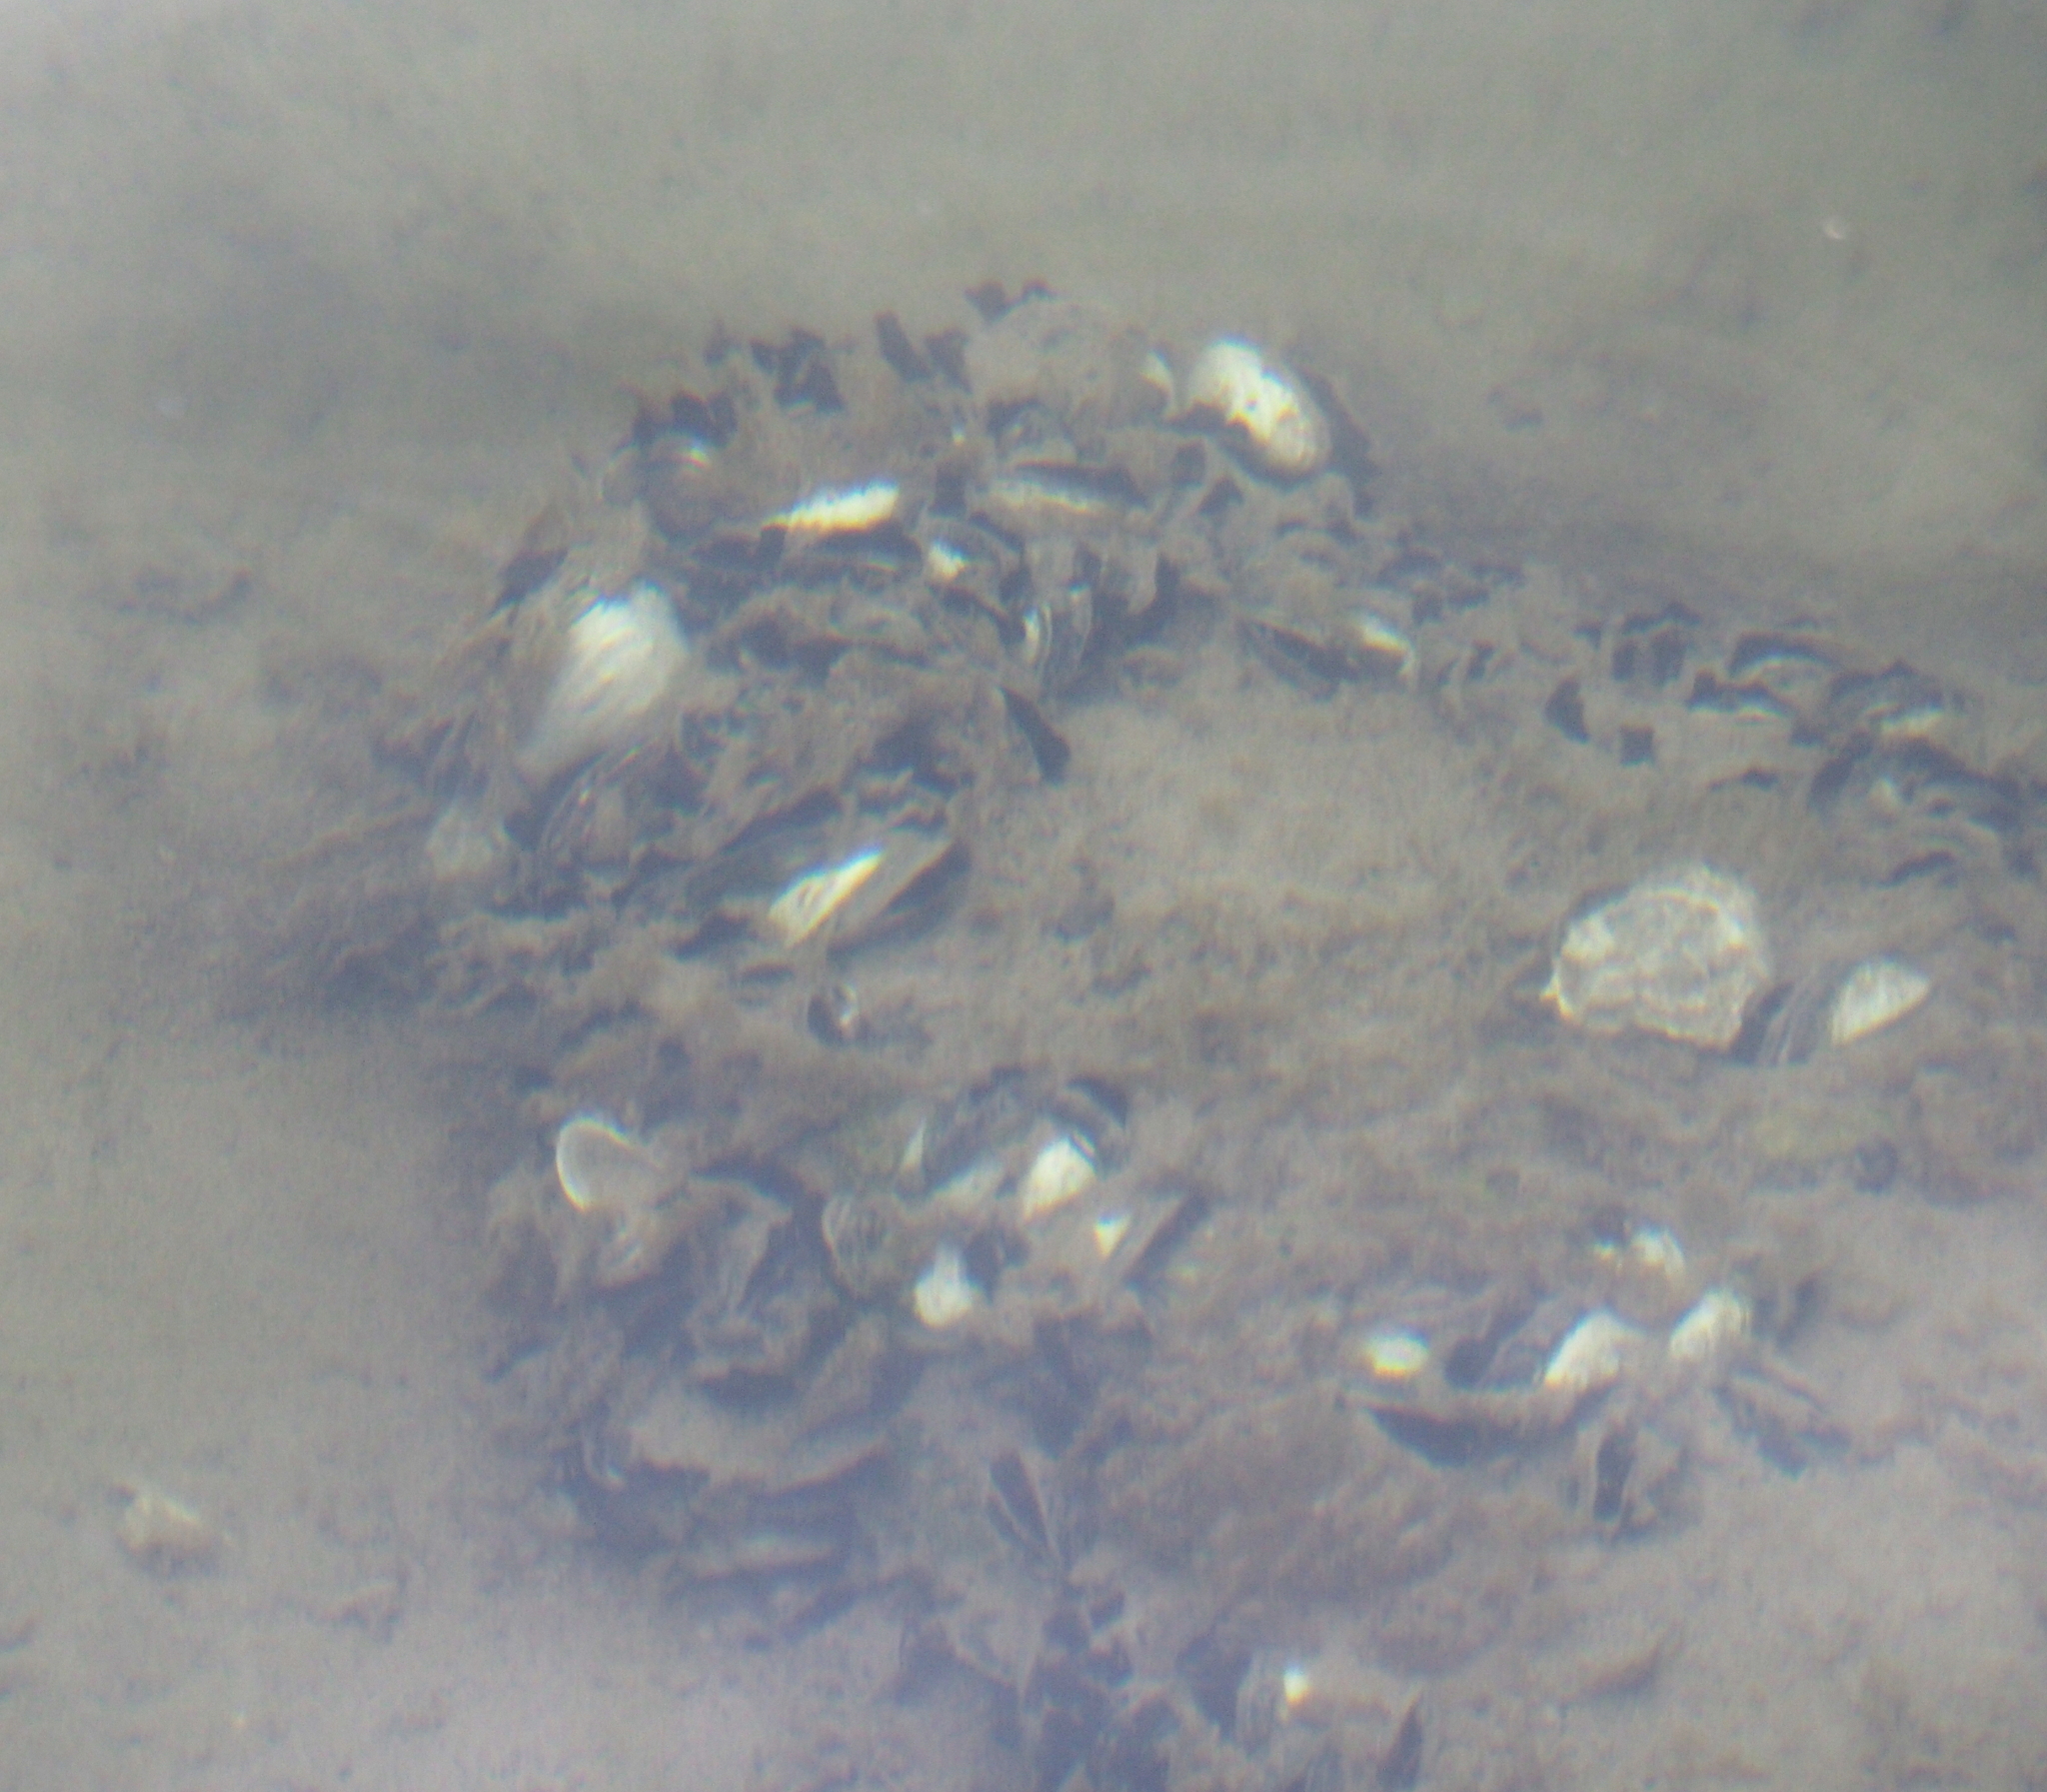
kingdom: Animalia
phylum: Mollusca
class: Bivalvia
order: Myida
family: Dreissenidae
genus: Dreissena
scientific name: Dreissena polymorpha
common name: Zebra mussel
